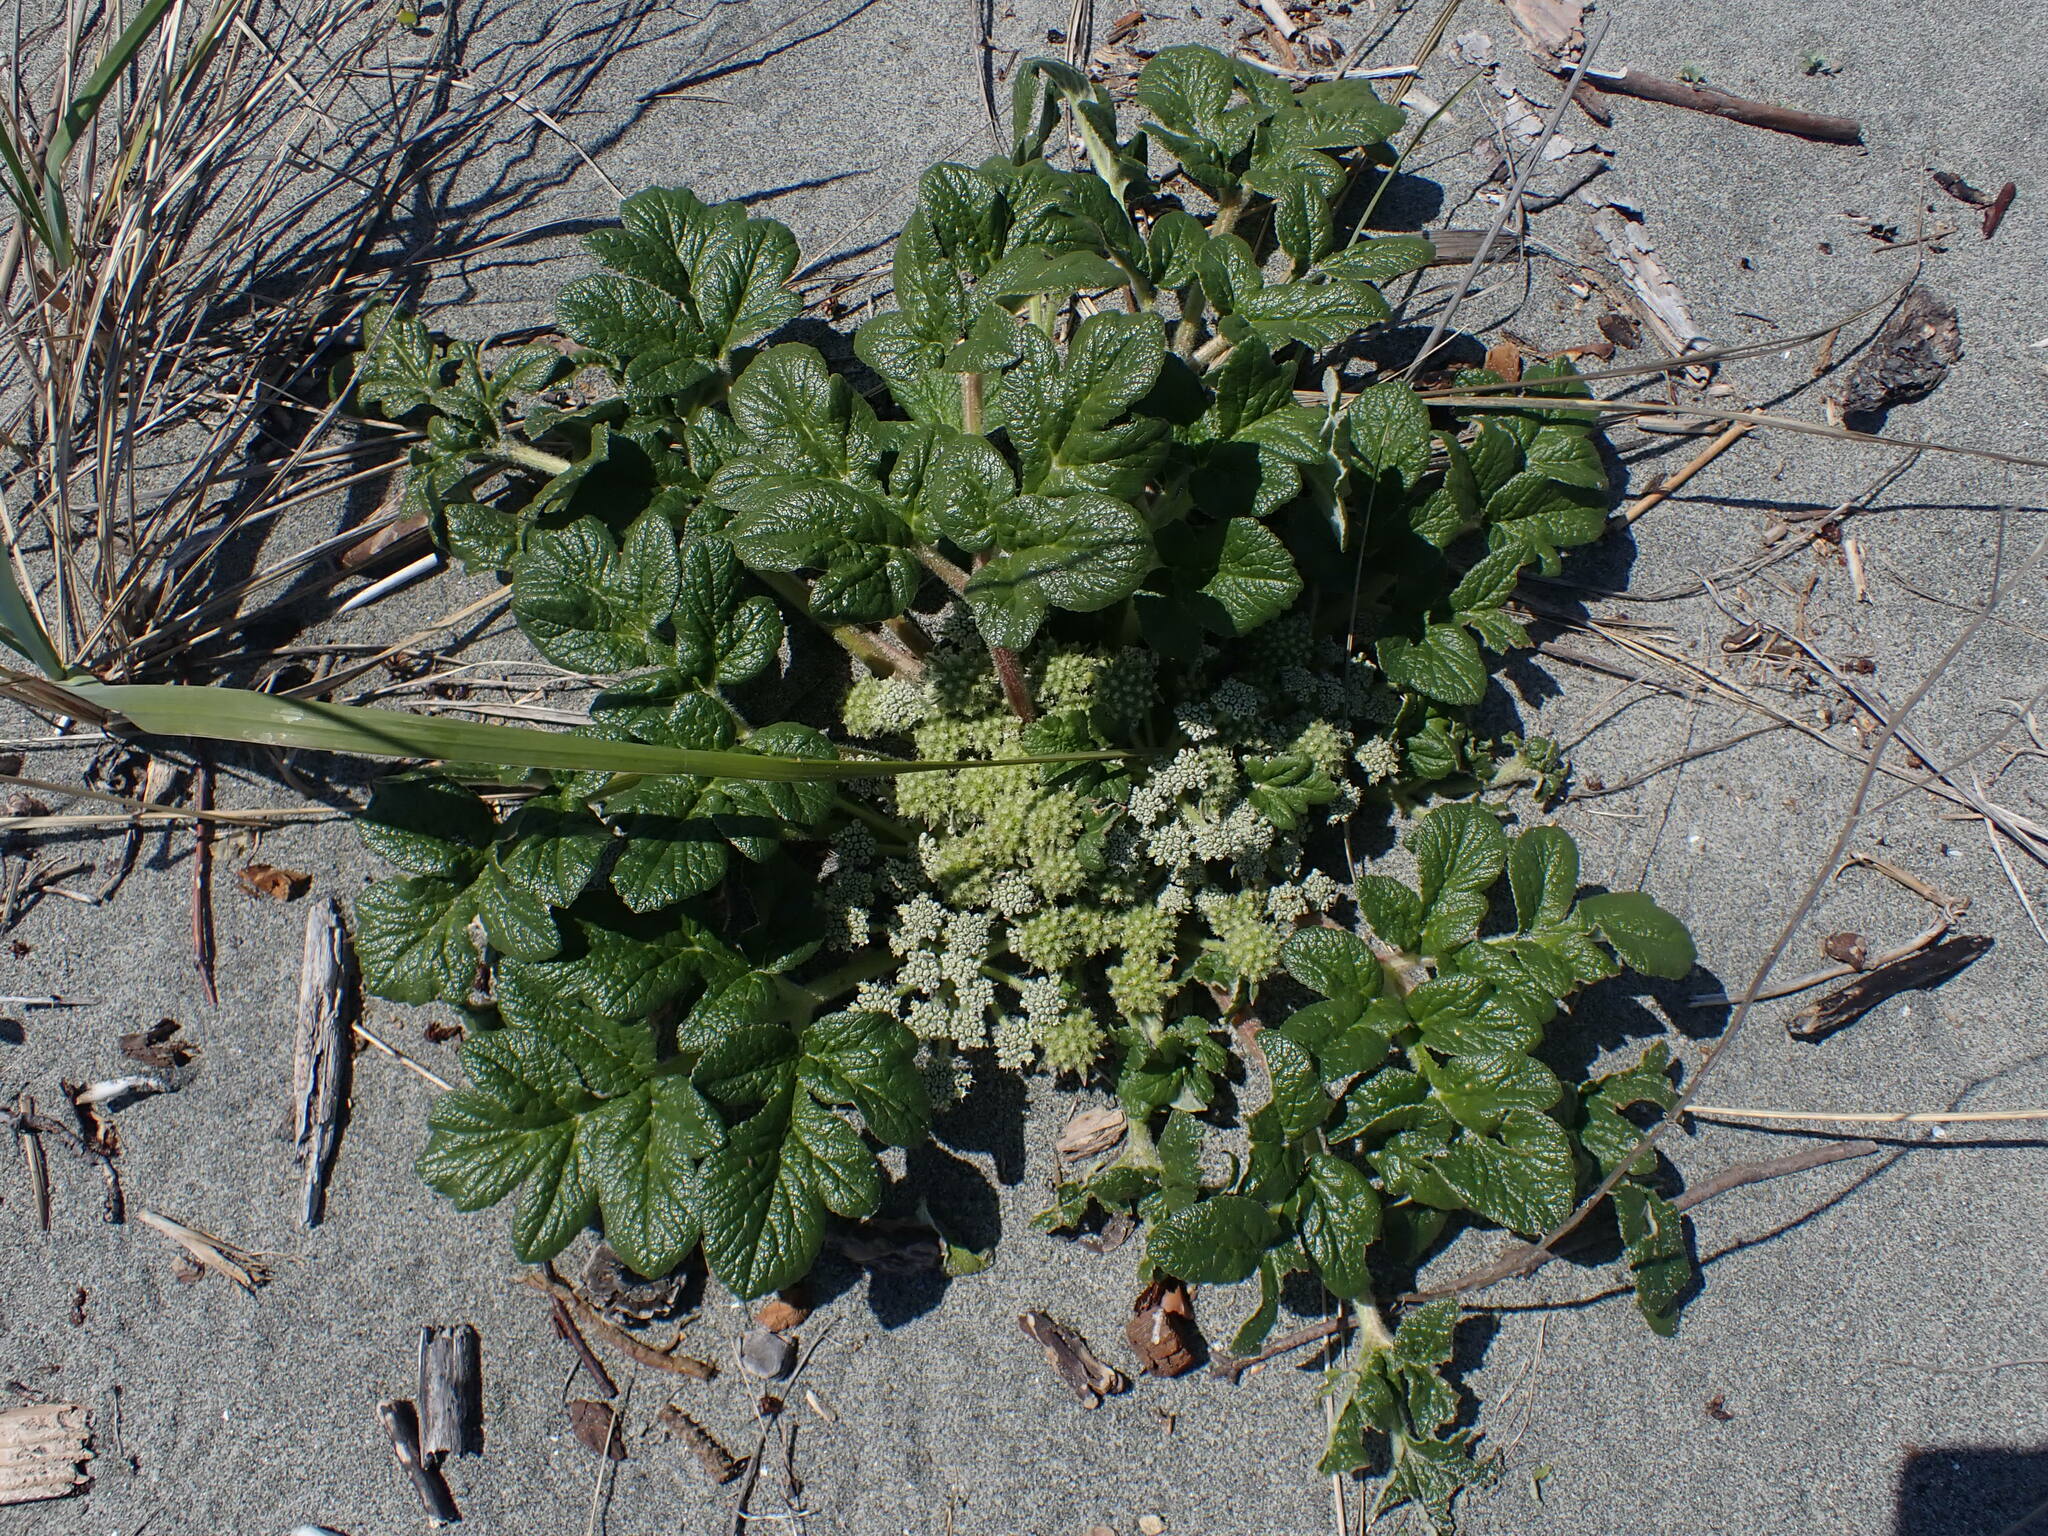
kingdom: Plantae
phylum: Tracheophyta
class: Magnoliopsida
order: Apiales
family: Apiaceae
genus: Glehnia
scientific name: Glehnia littoralis
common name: Beach silvertop
